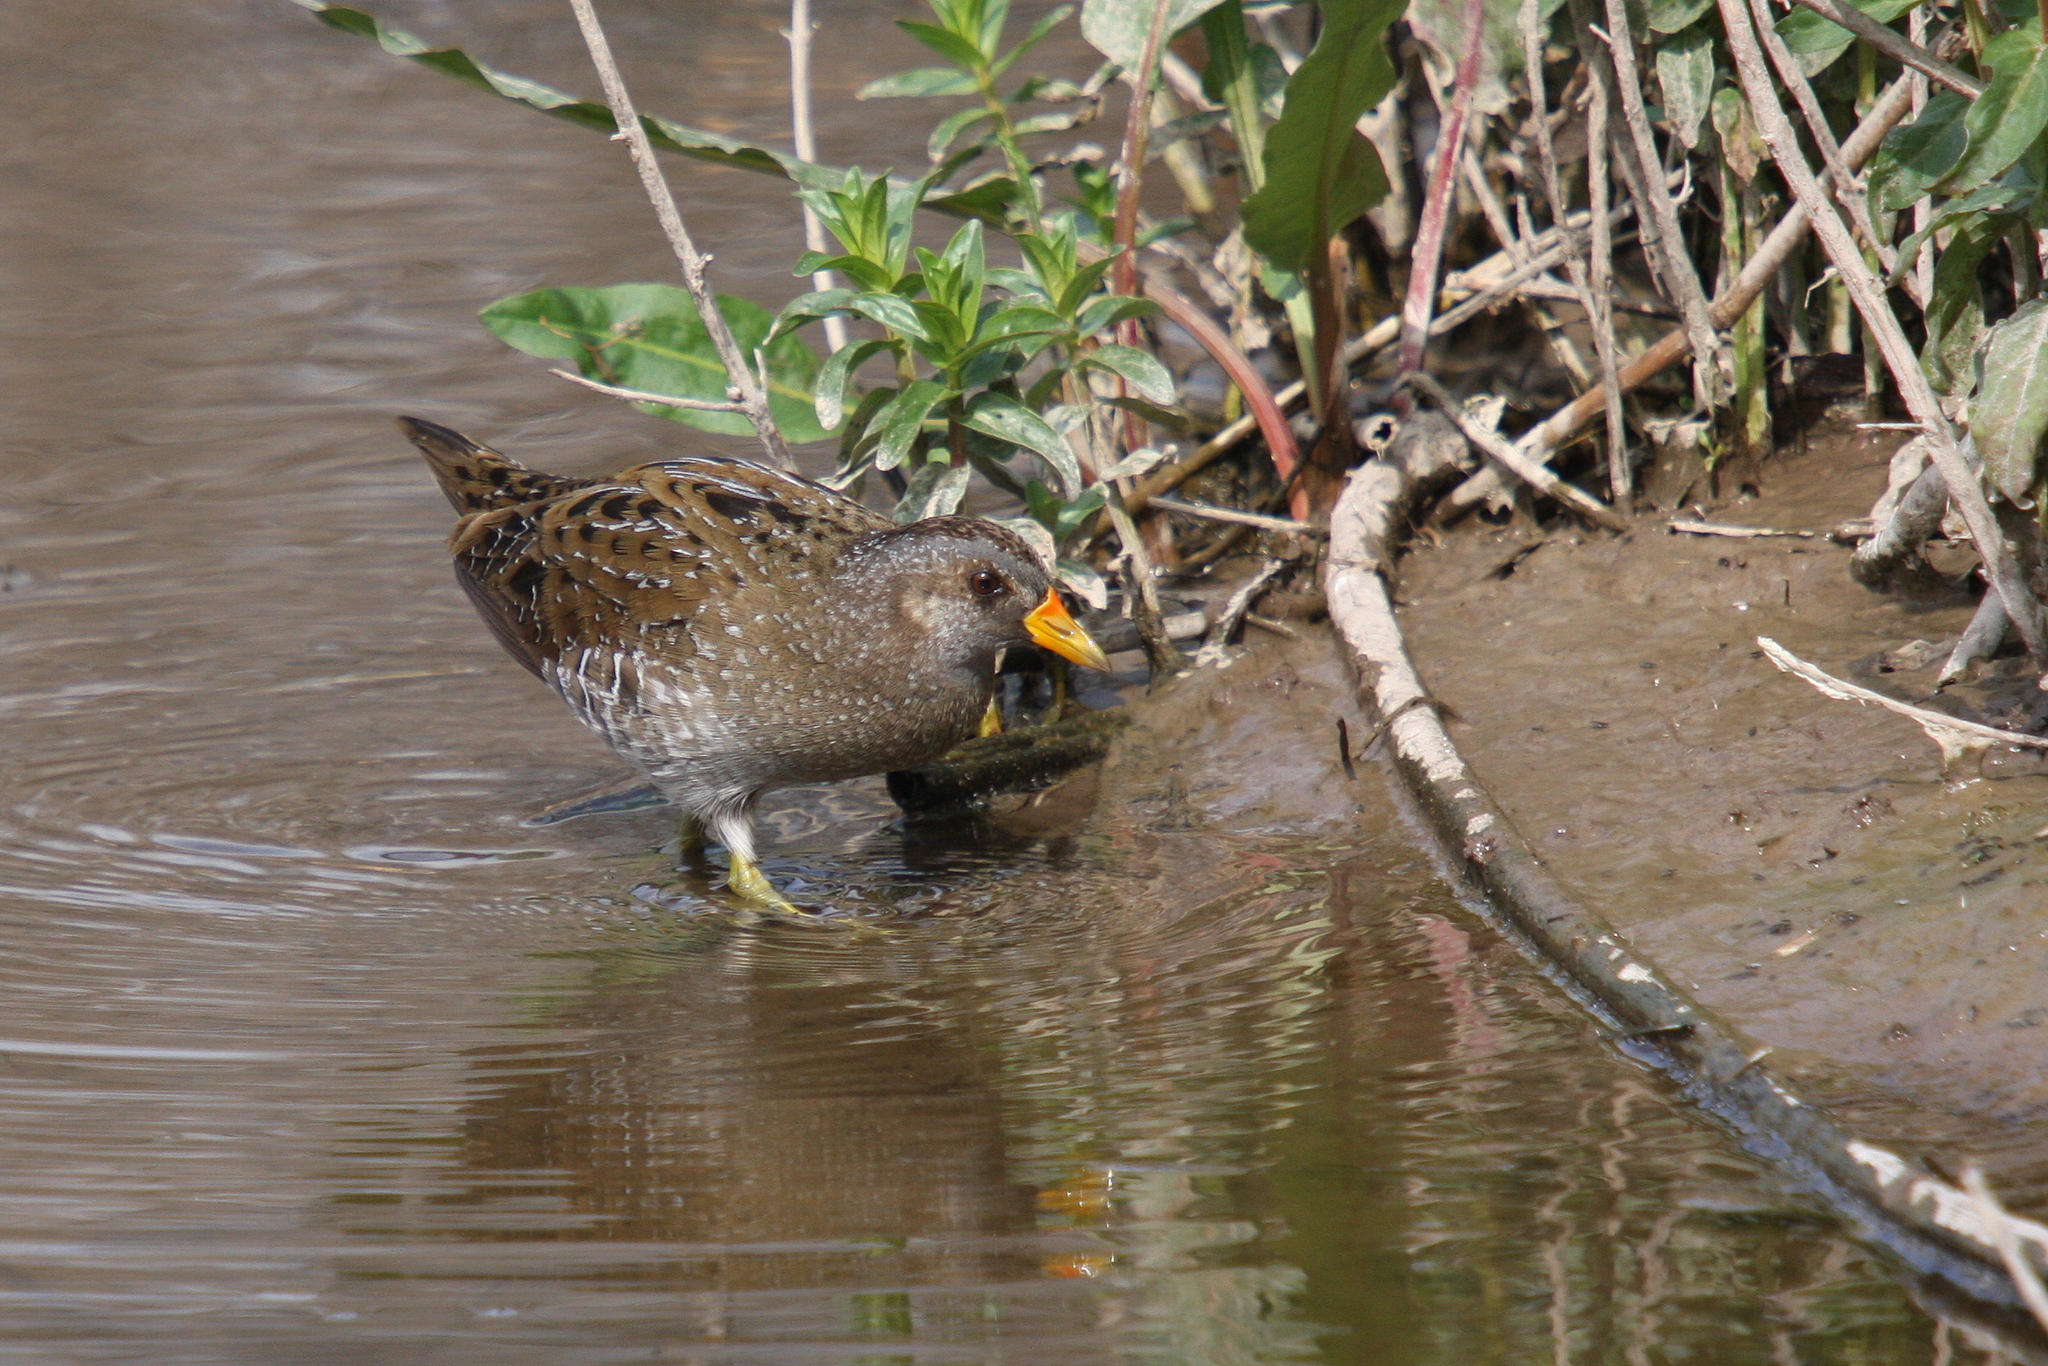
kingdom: Animalia
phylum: Chordata
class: Aves
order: Gruiformes
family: Rallidae
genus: Porzana
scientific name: Porzana porzana
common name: Spotted crake
